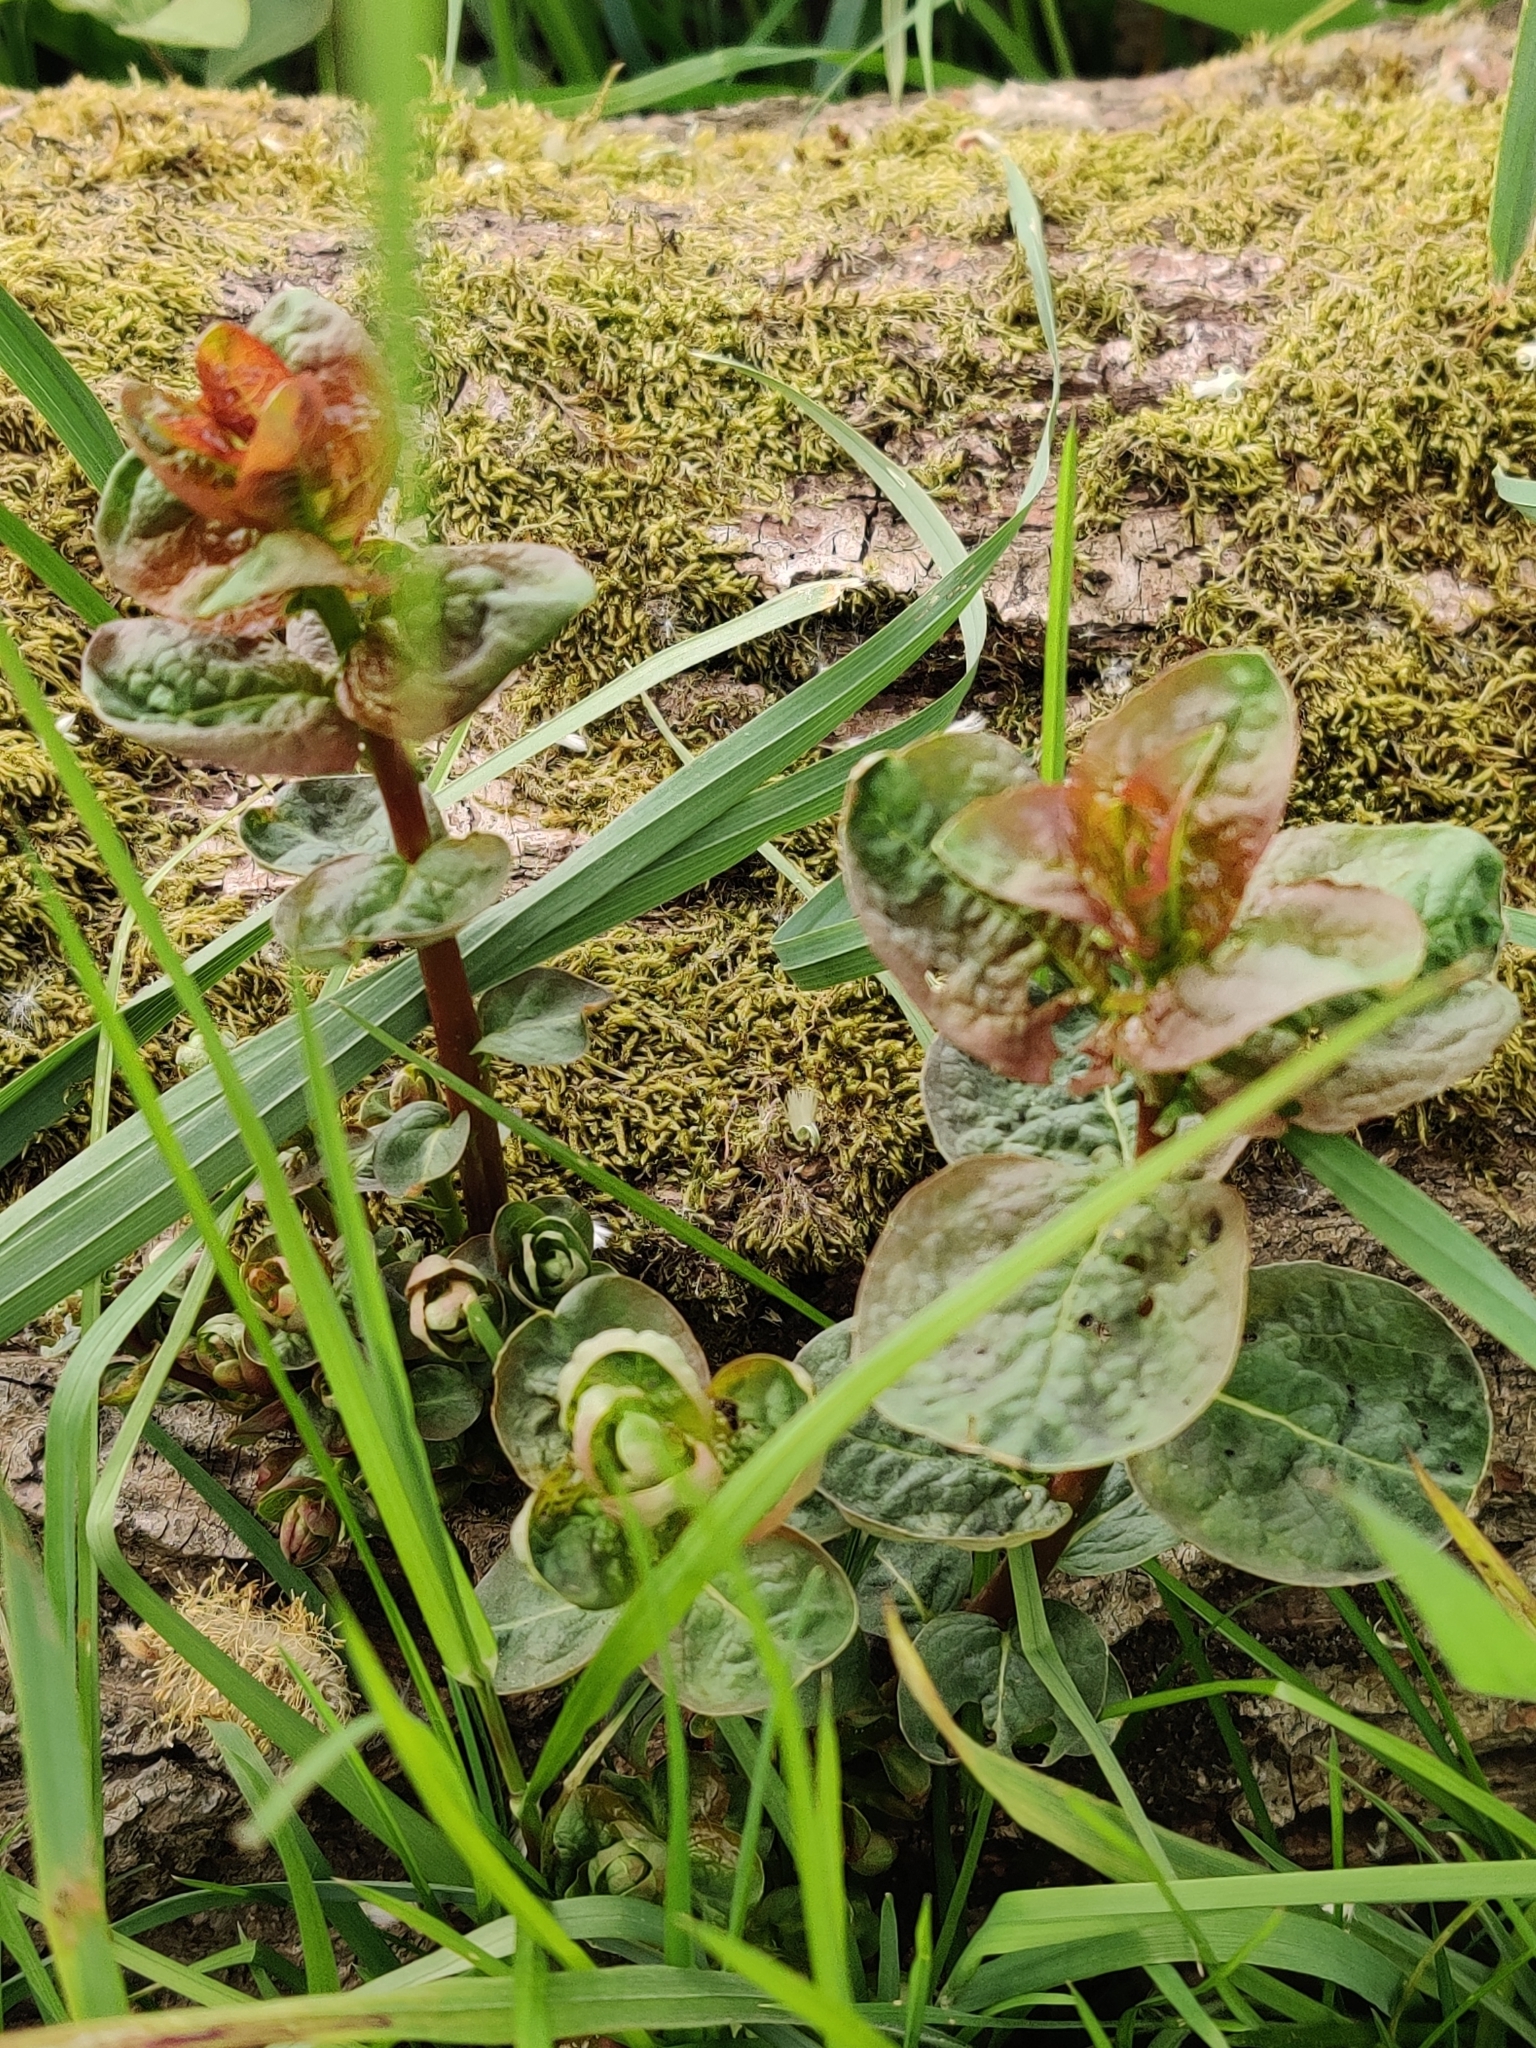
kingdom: Plantae
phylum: Tracheophyta
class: Magnoliopsida
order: Lamiales
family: Lamiaceae
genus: Mentha
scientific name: Mentha aquatica
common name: Water mint
